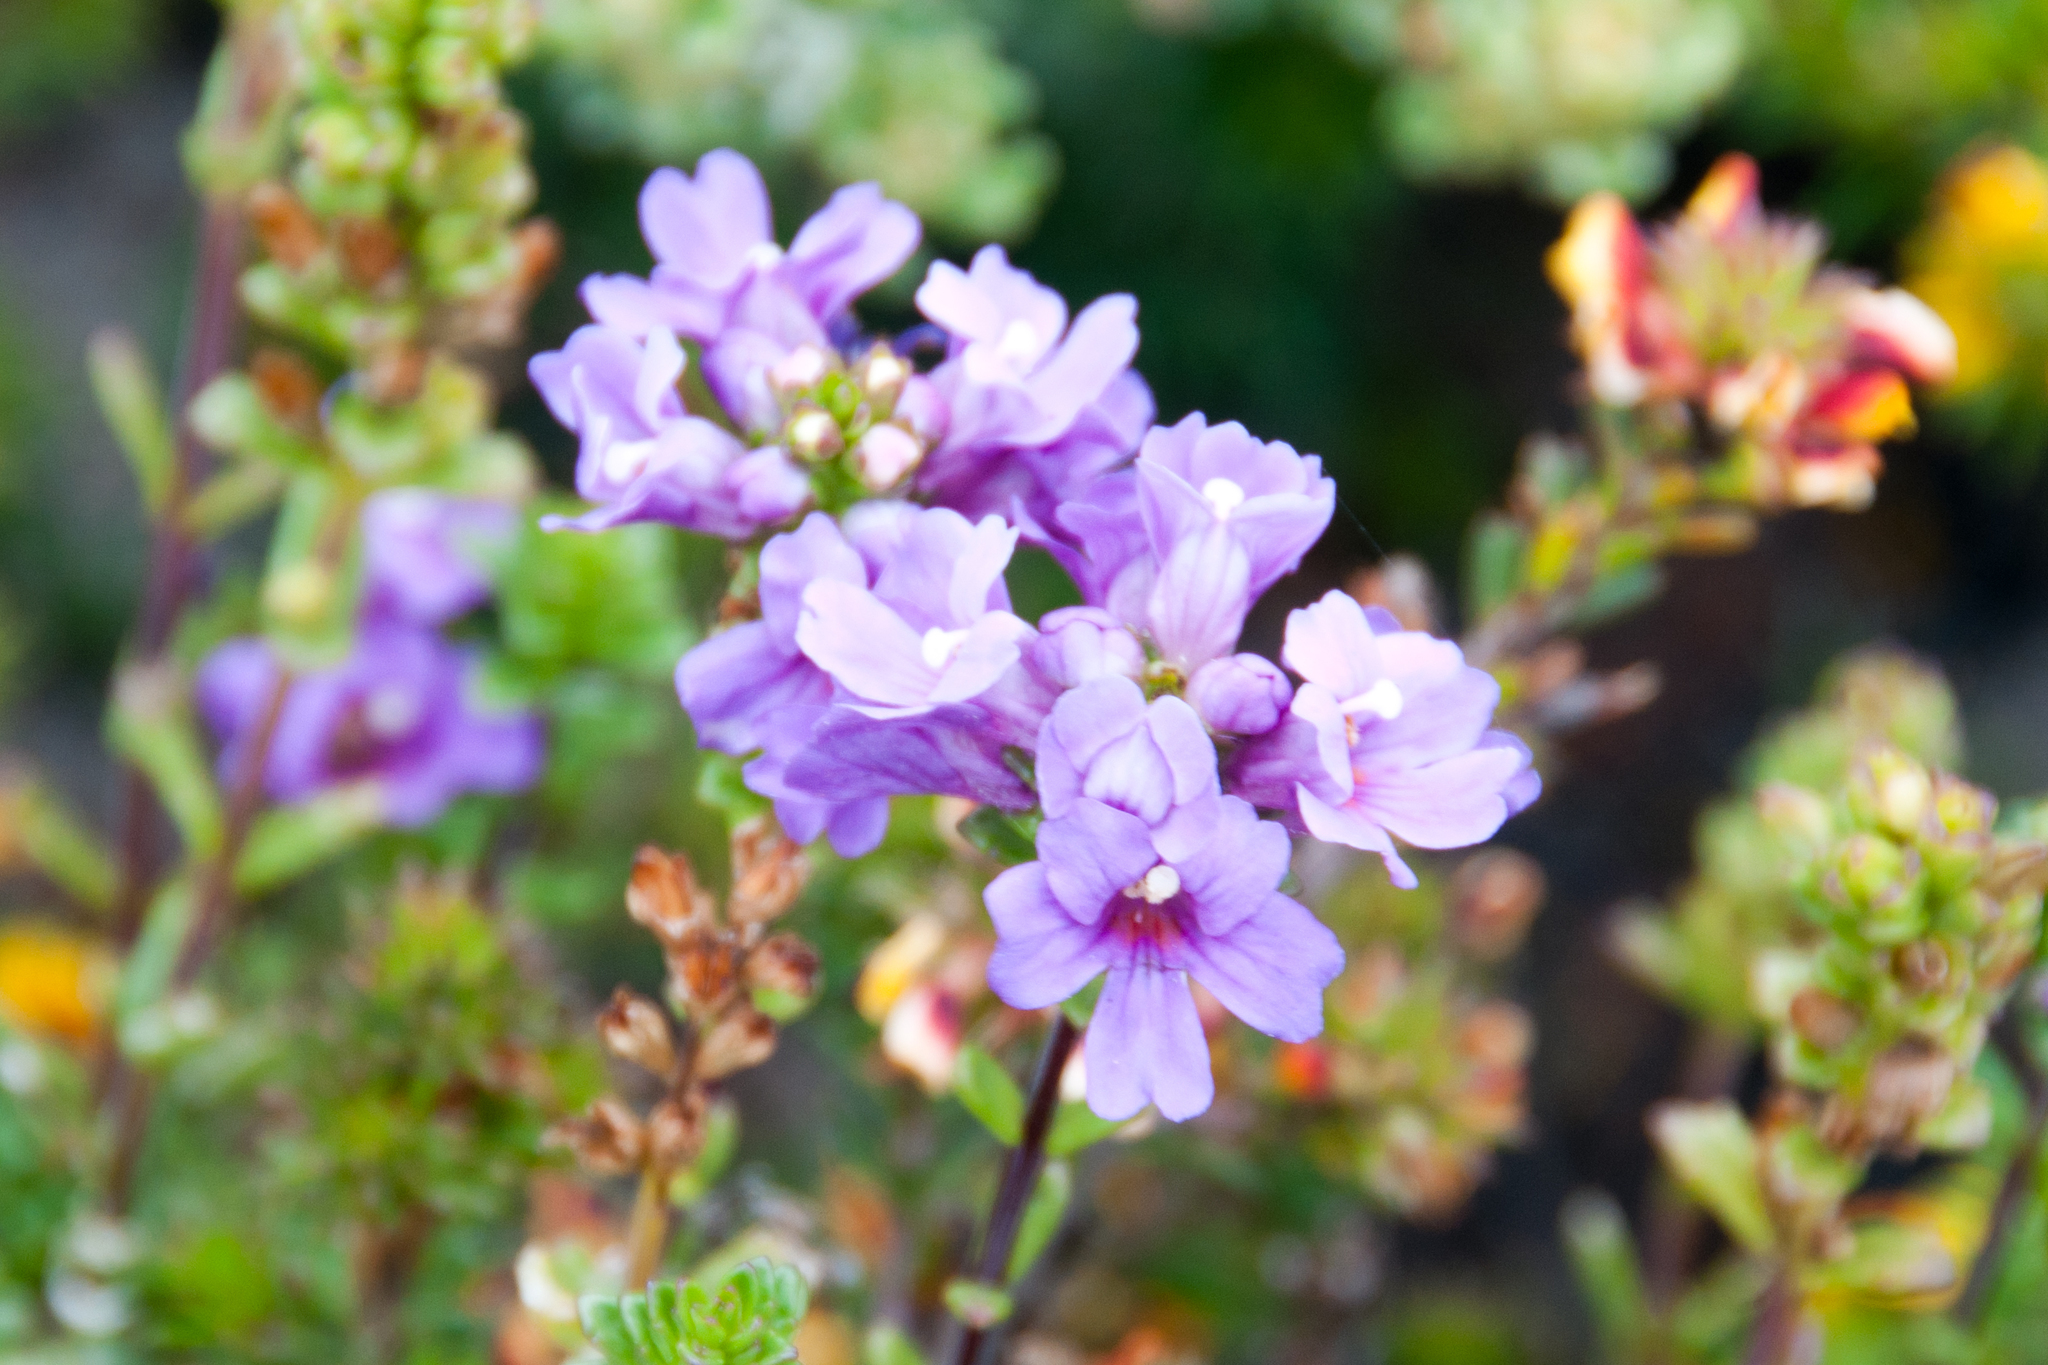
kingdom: Plantae
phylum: Tracheophyta
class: Magnoliopsida
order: Lamiales
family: Orobanchaceae
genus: Euphrasia
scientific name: Euphrasia collina
